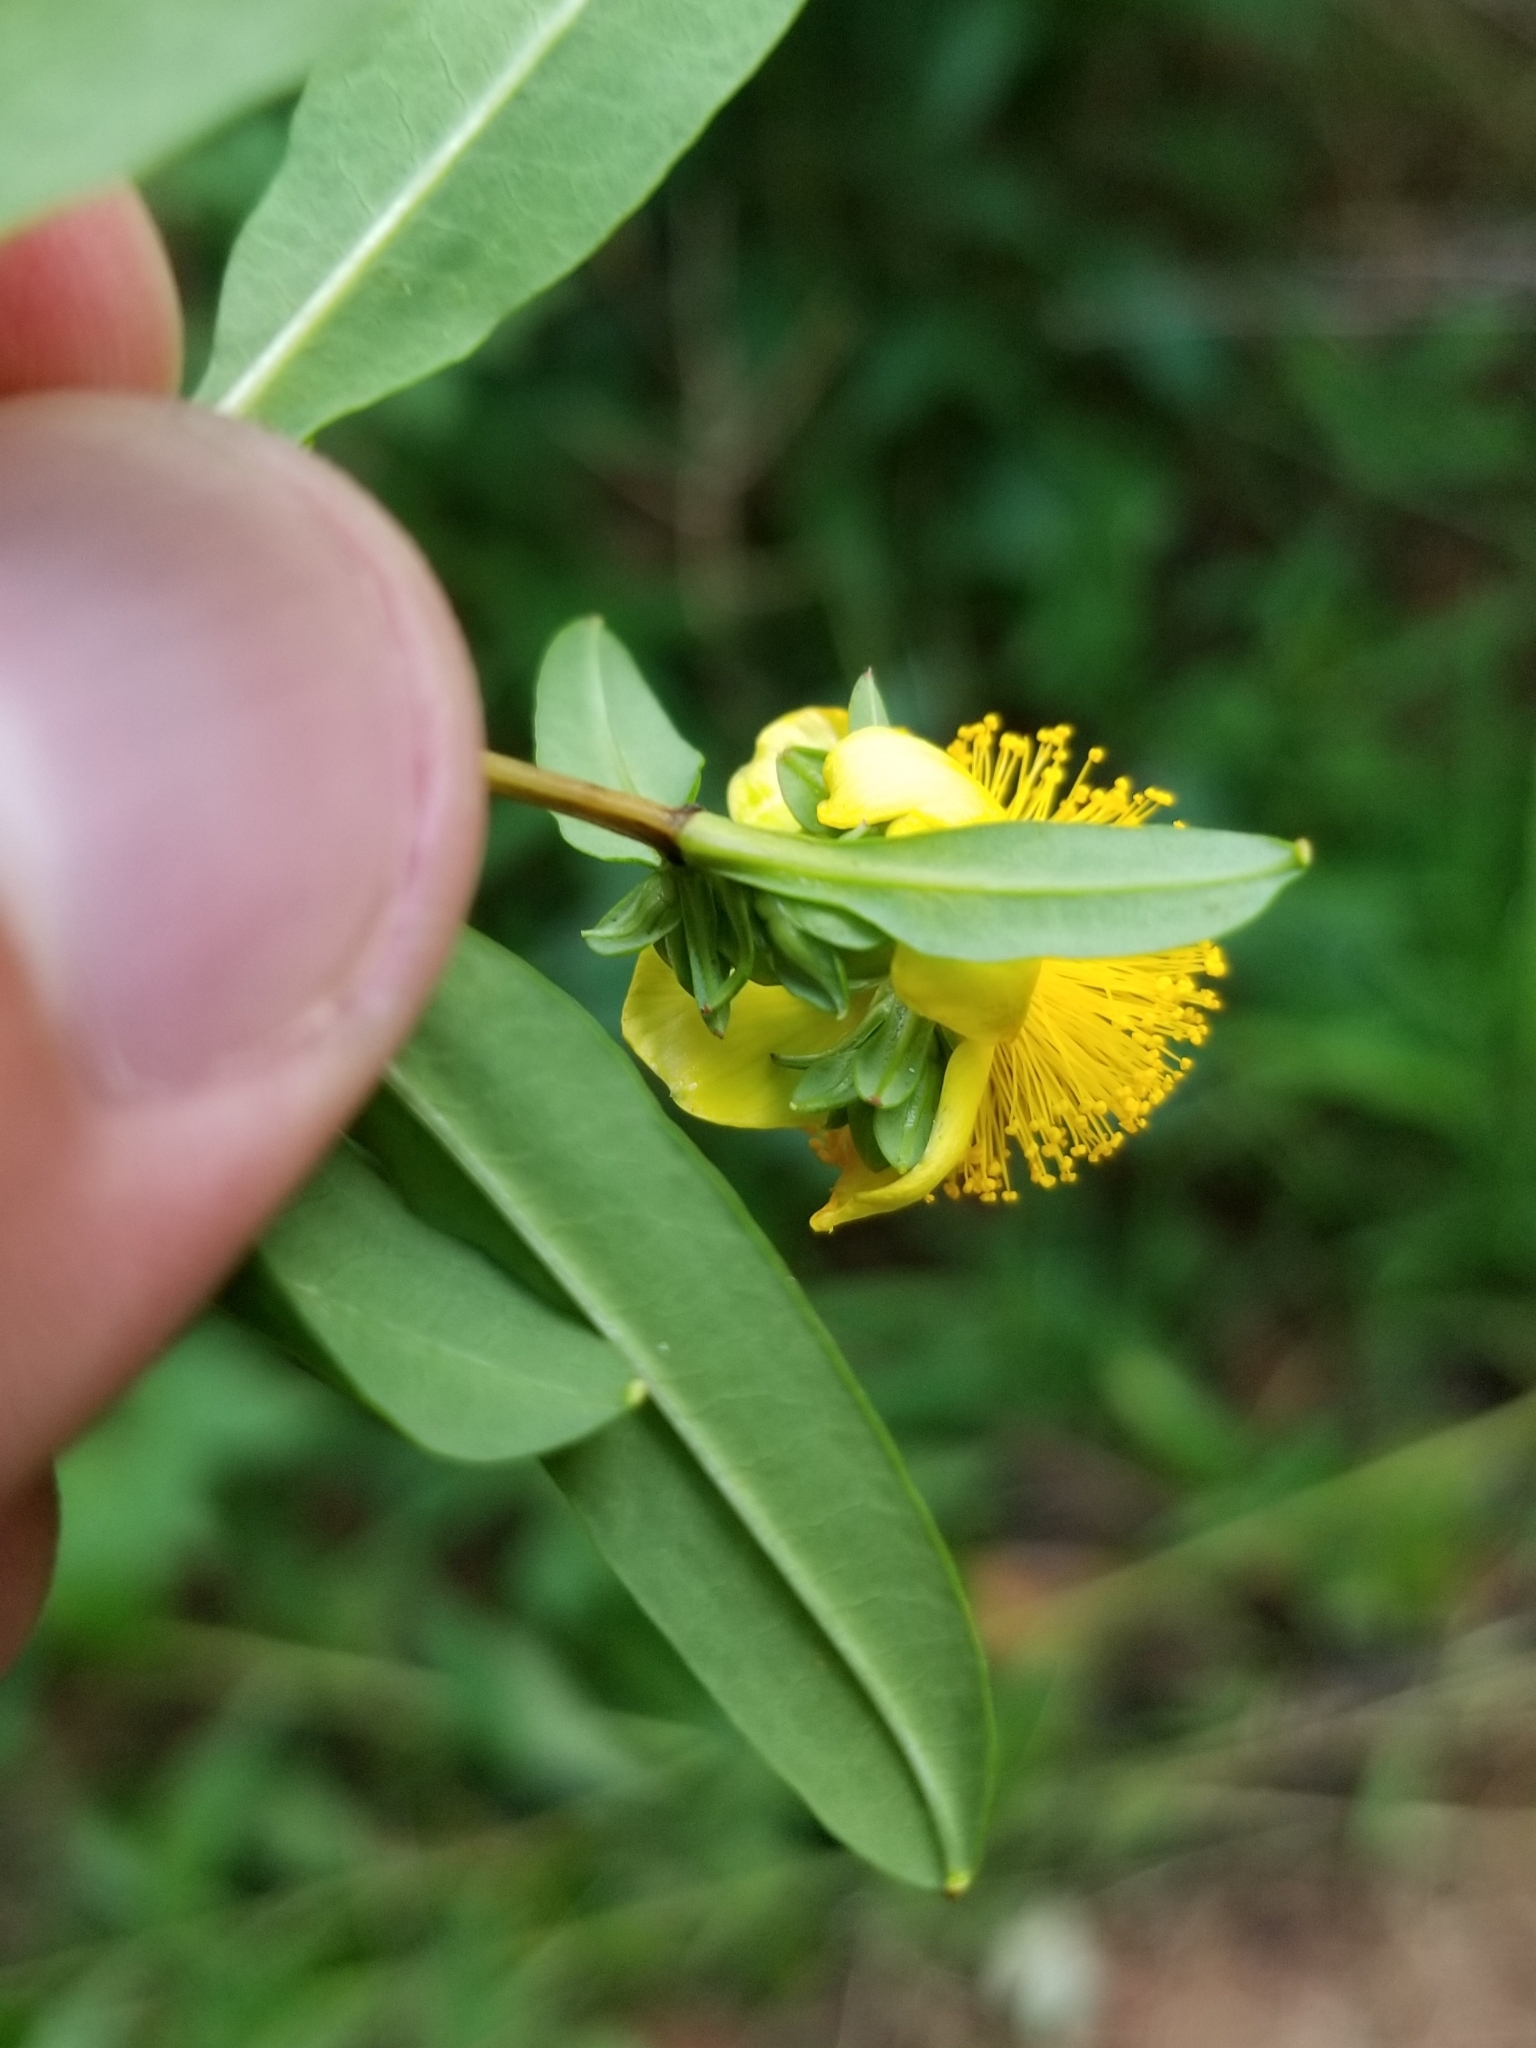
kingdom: Plantae
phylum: Tracheophyta
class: Magnoliopsida
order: Malpighiales
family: Hypericaceae
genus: Hypericum
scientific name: Hypericum prolificum
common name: Shrubby st. john's-wort
